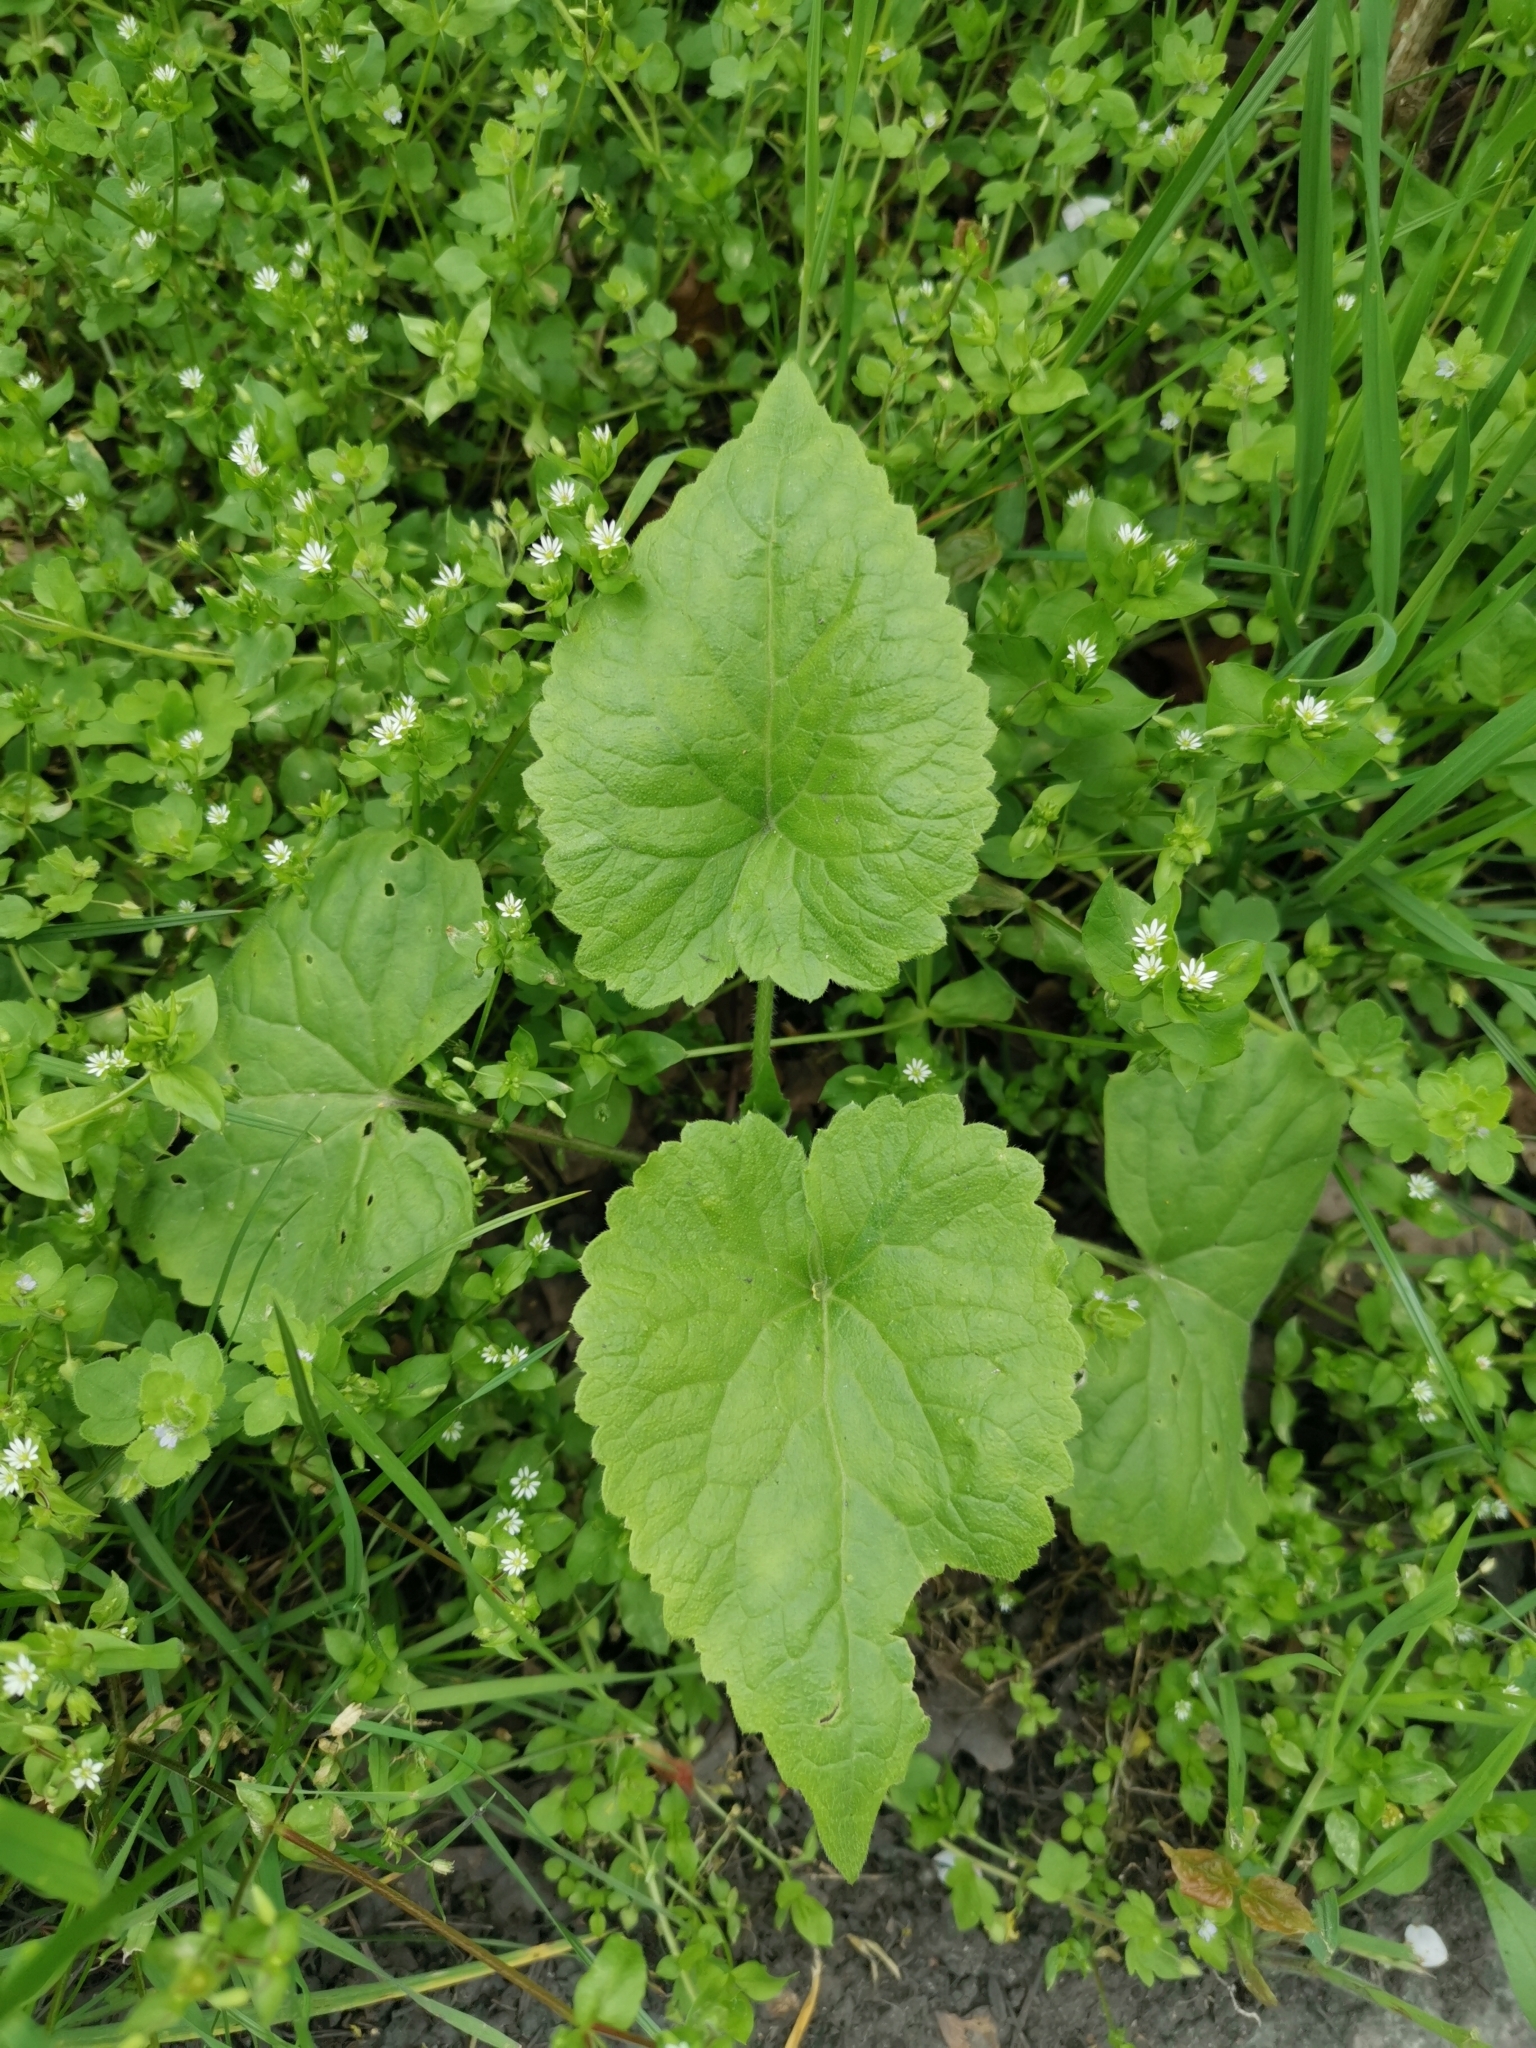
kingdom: Plantae
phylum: Tracheophyta
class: Magnoliopsida
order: Brassicales
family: Brassicaceae
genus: Lunaria
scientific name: Lunaria annua
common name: Honesty
